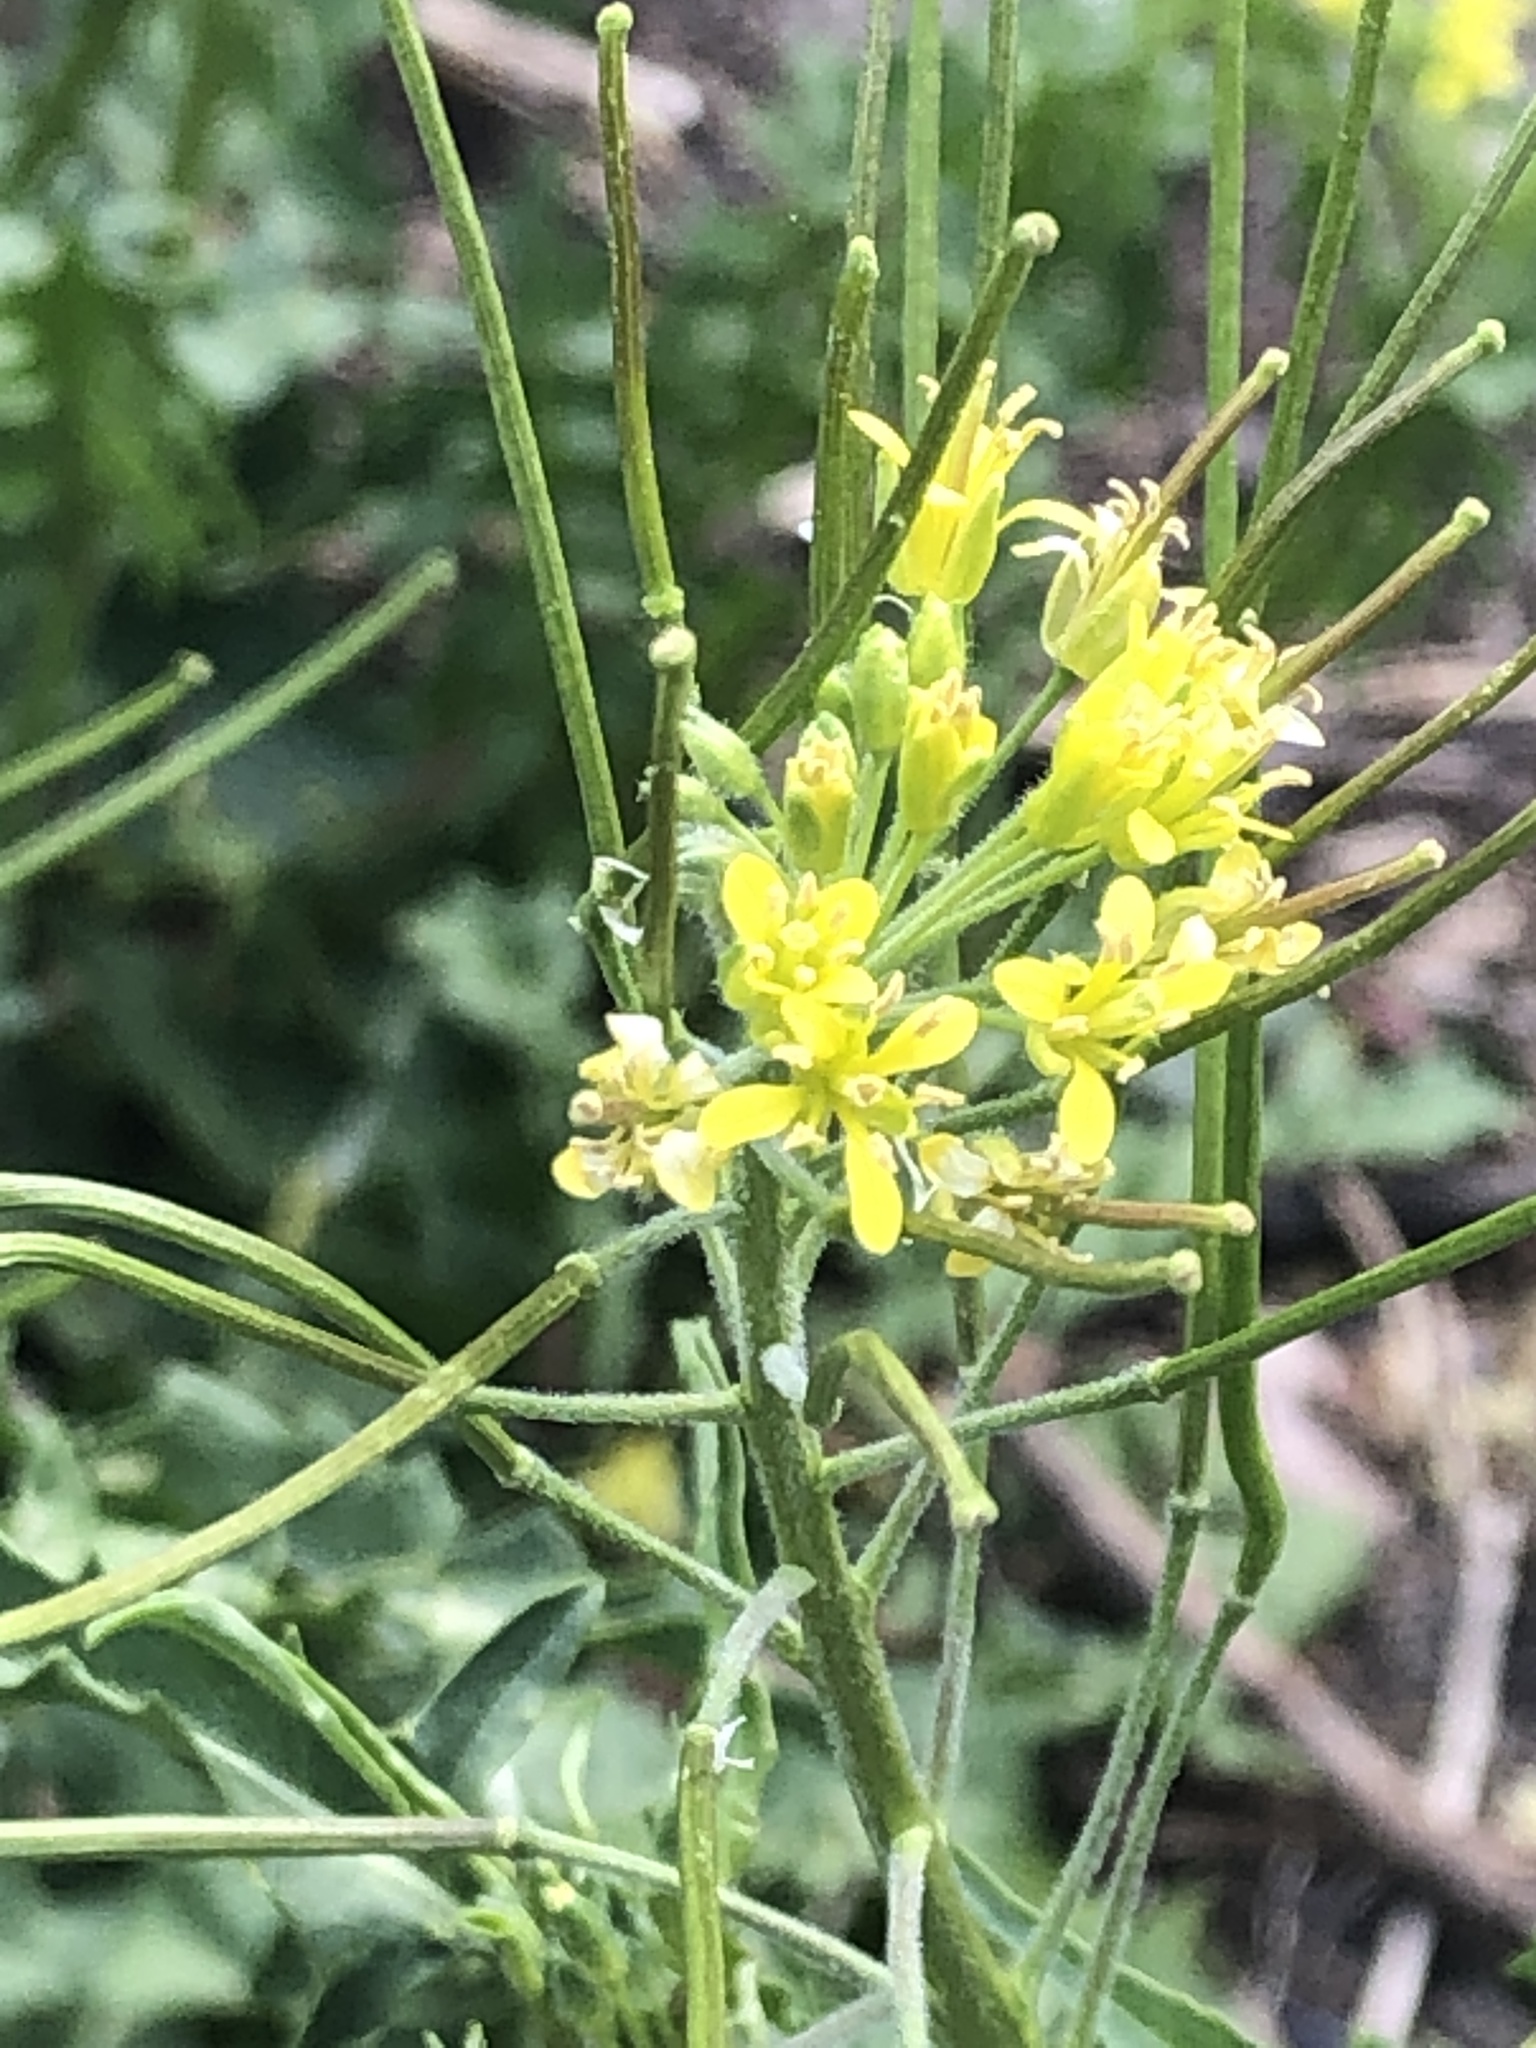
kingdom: Plantae
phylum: Tracheophyta
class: Magnoliopsida
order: Brassicales
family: Brassicaceae
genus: Sisymbrium
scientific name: Sisymbrium loeselii
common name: False london-rocket
